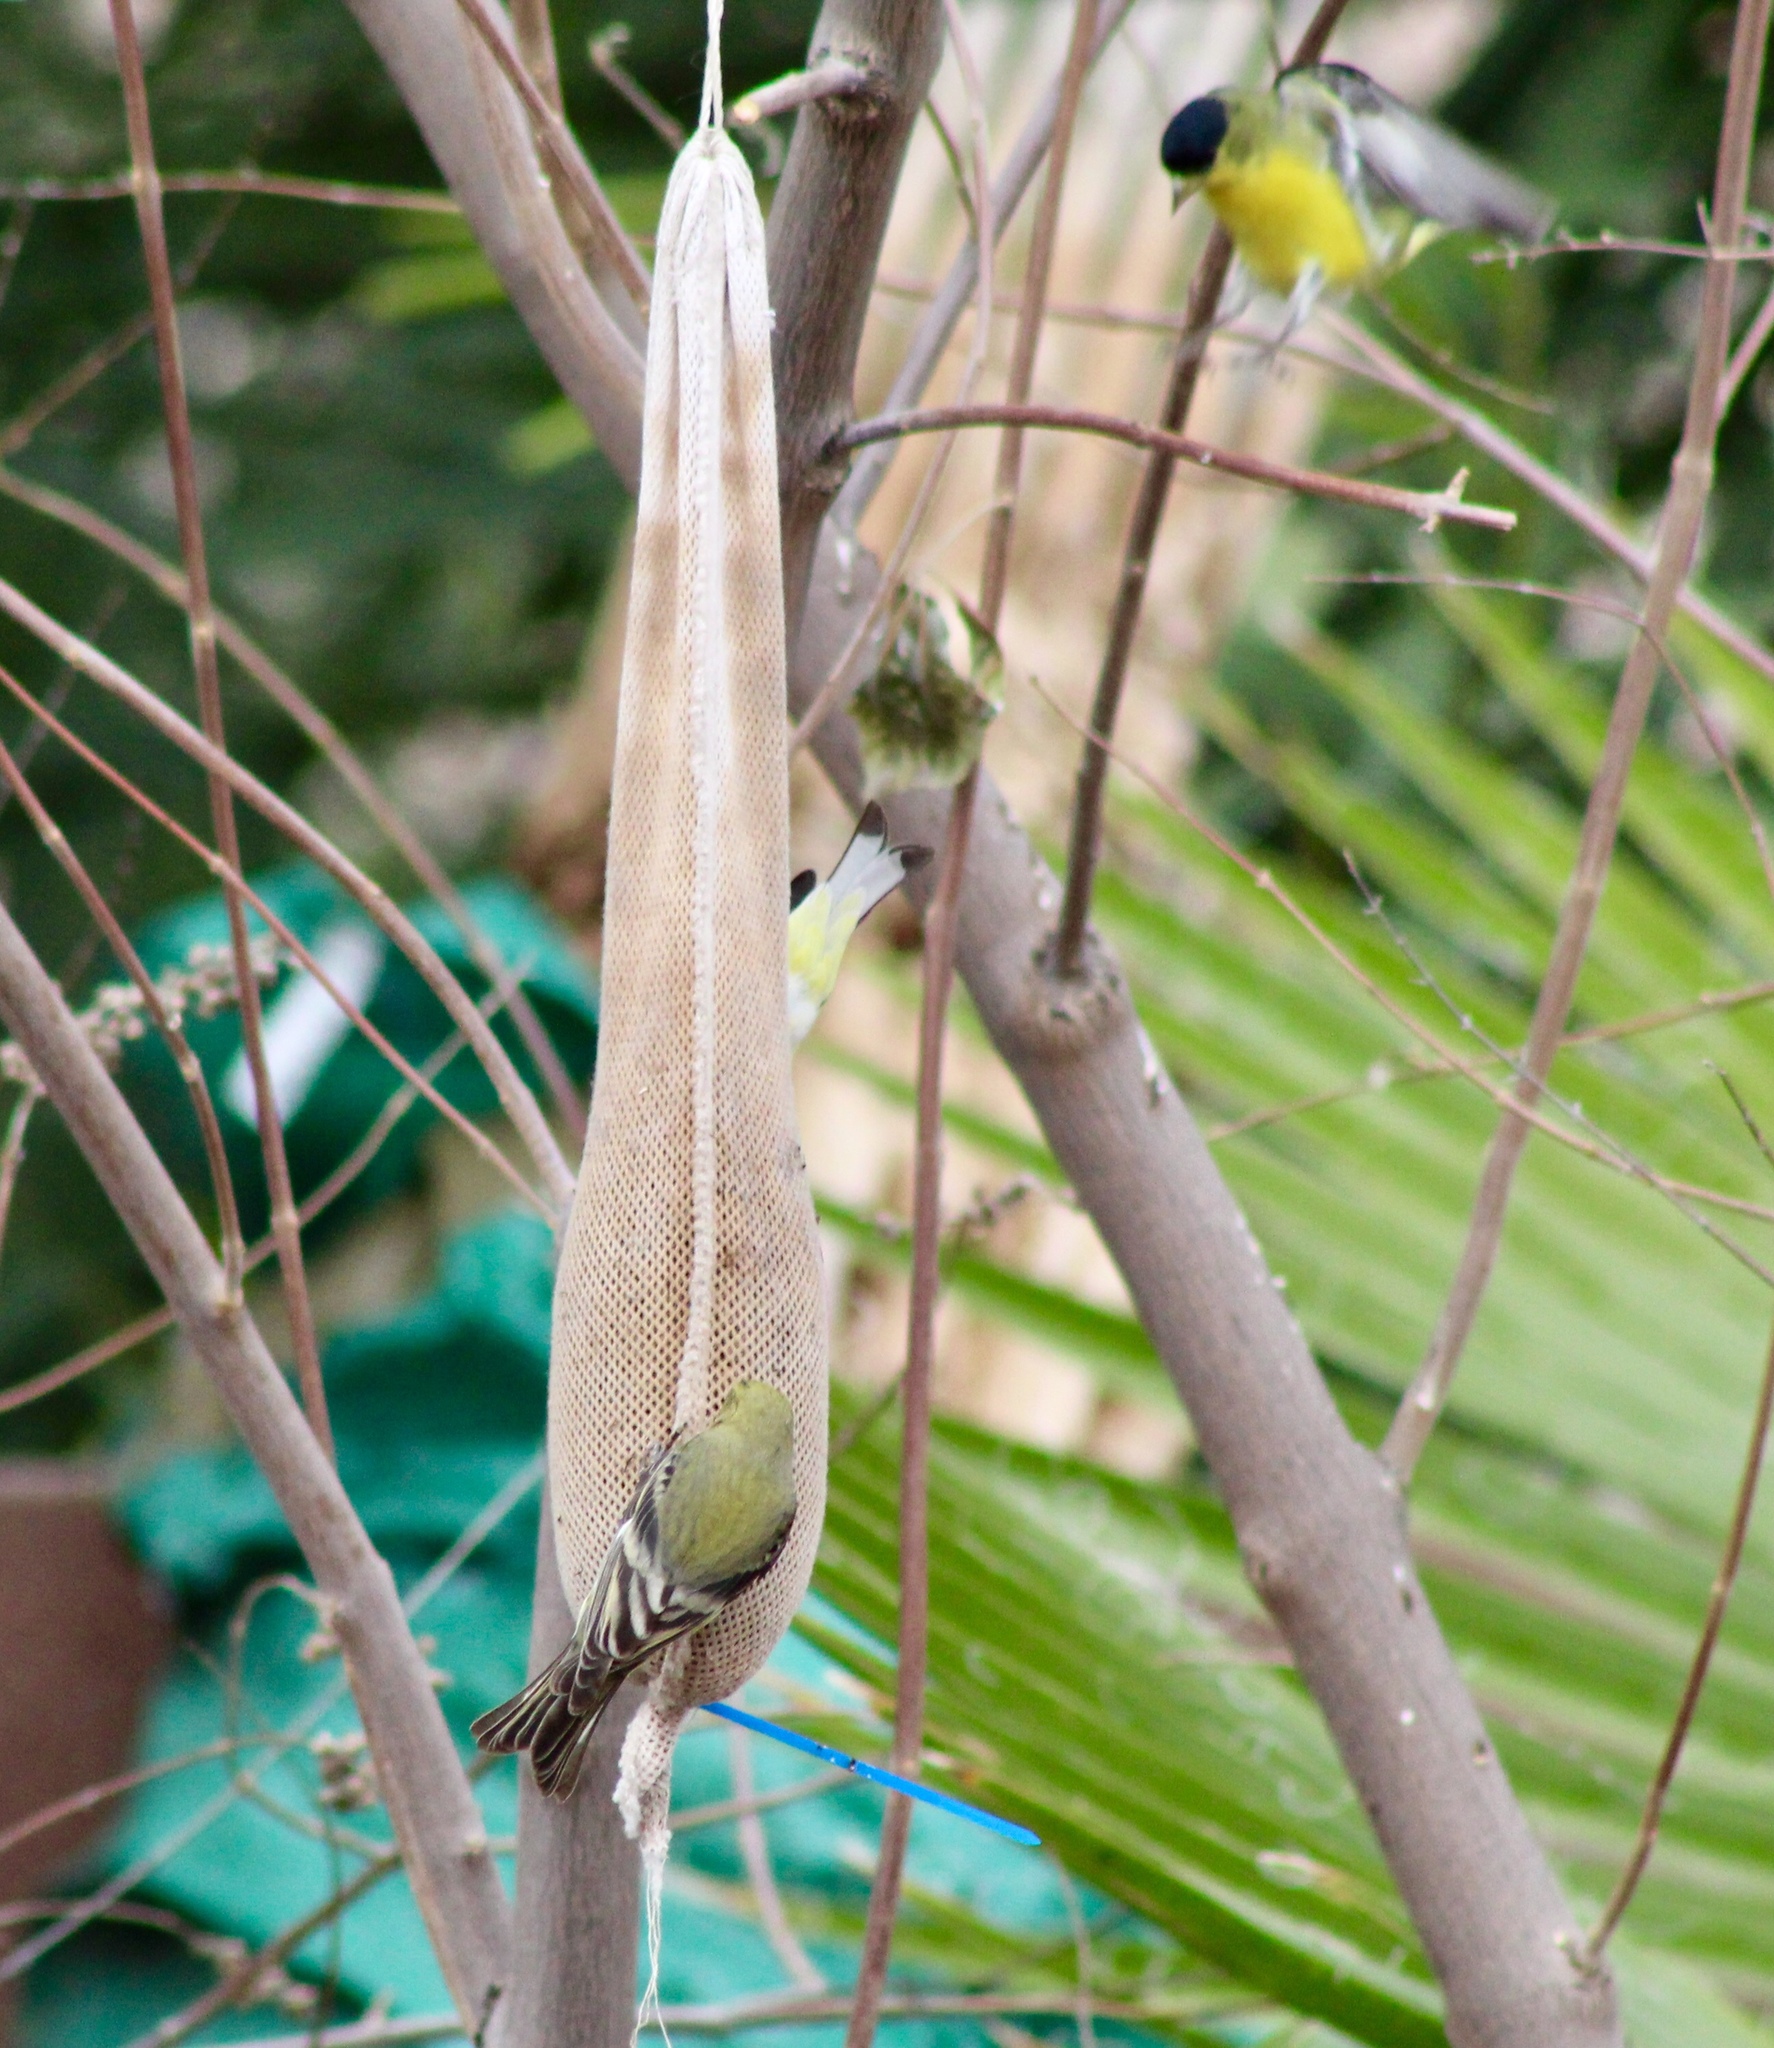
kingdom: Animalia
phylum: Chordata
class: Aves
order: Passeriformes
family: Fringillidae
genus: Spinus
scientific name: Spinus psaltria
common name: Lesser goldfinch
